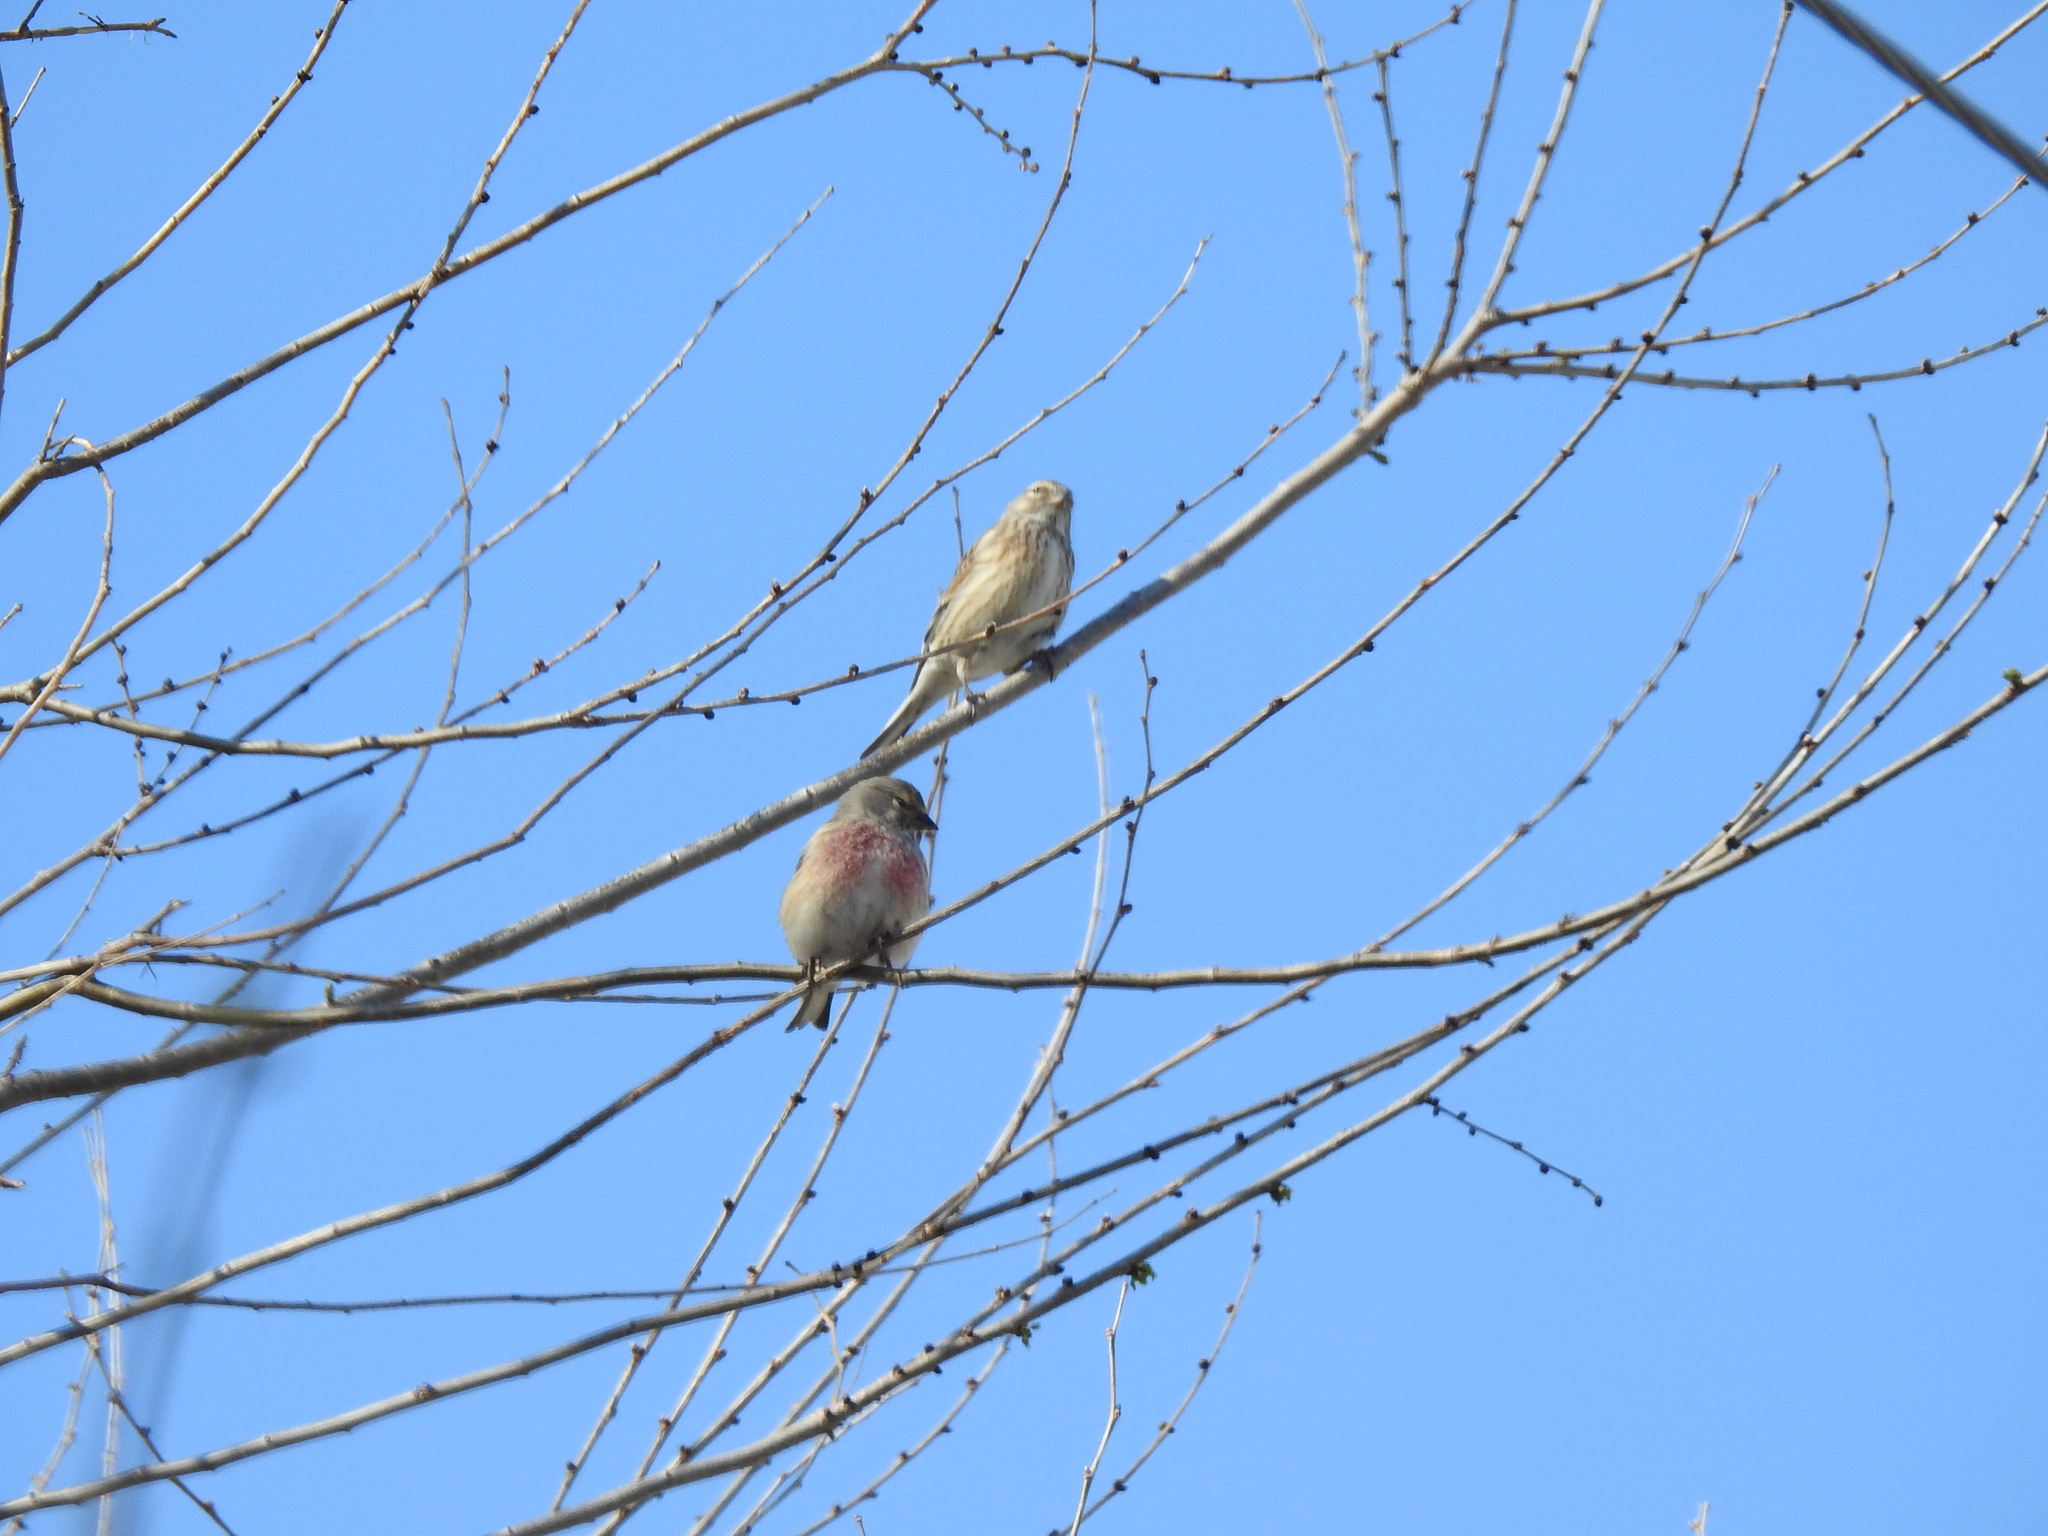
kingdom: Animalia
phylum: Chordata
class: Aves
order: Passeriformes
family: Fringillidae
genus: Linaria
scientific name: Linaria cannabina
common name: Common linnet
